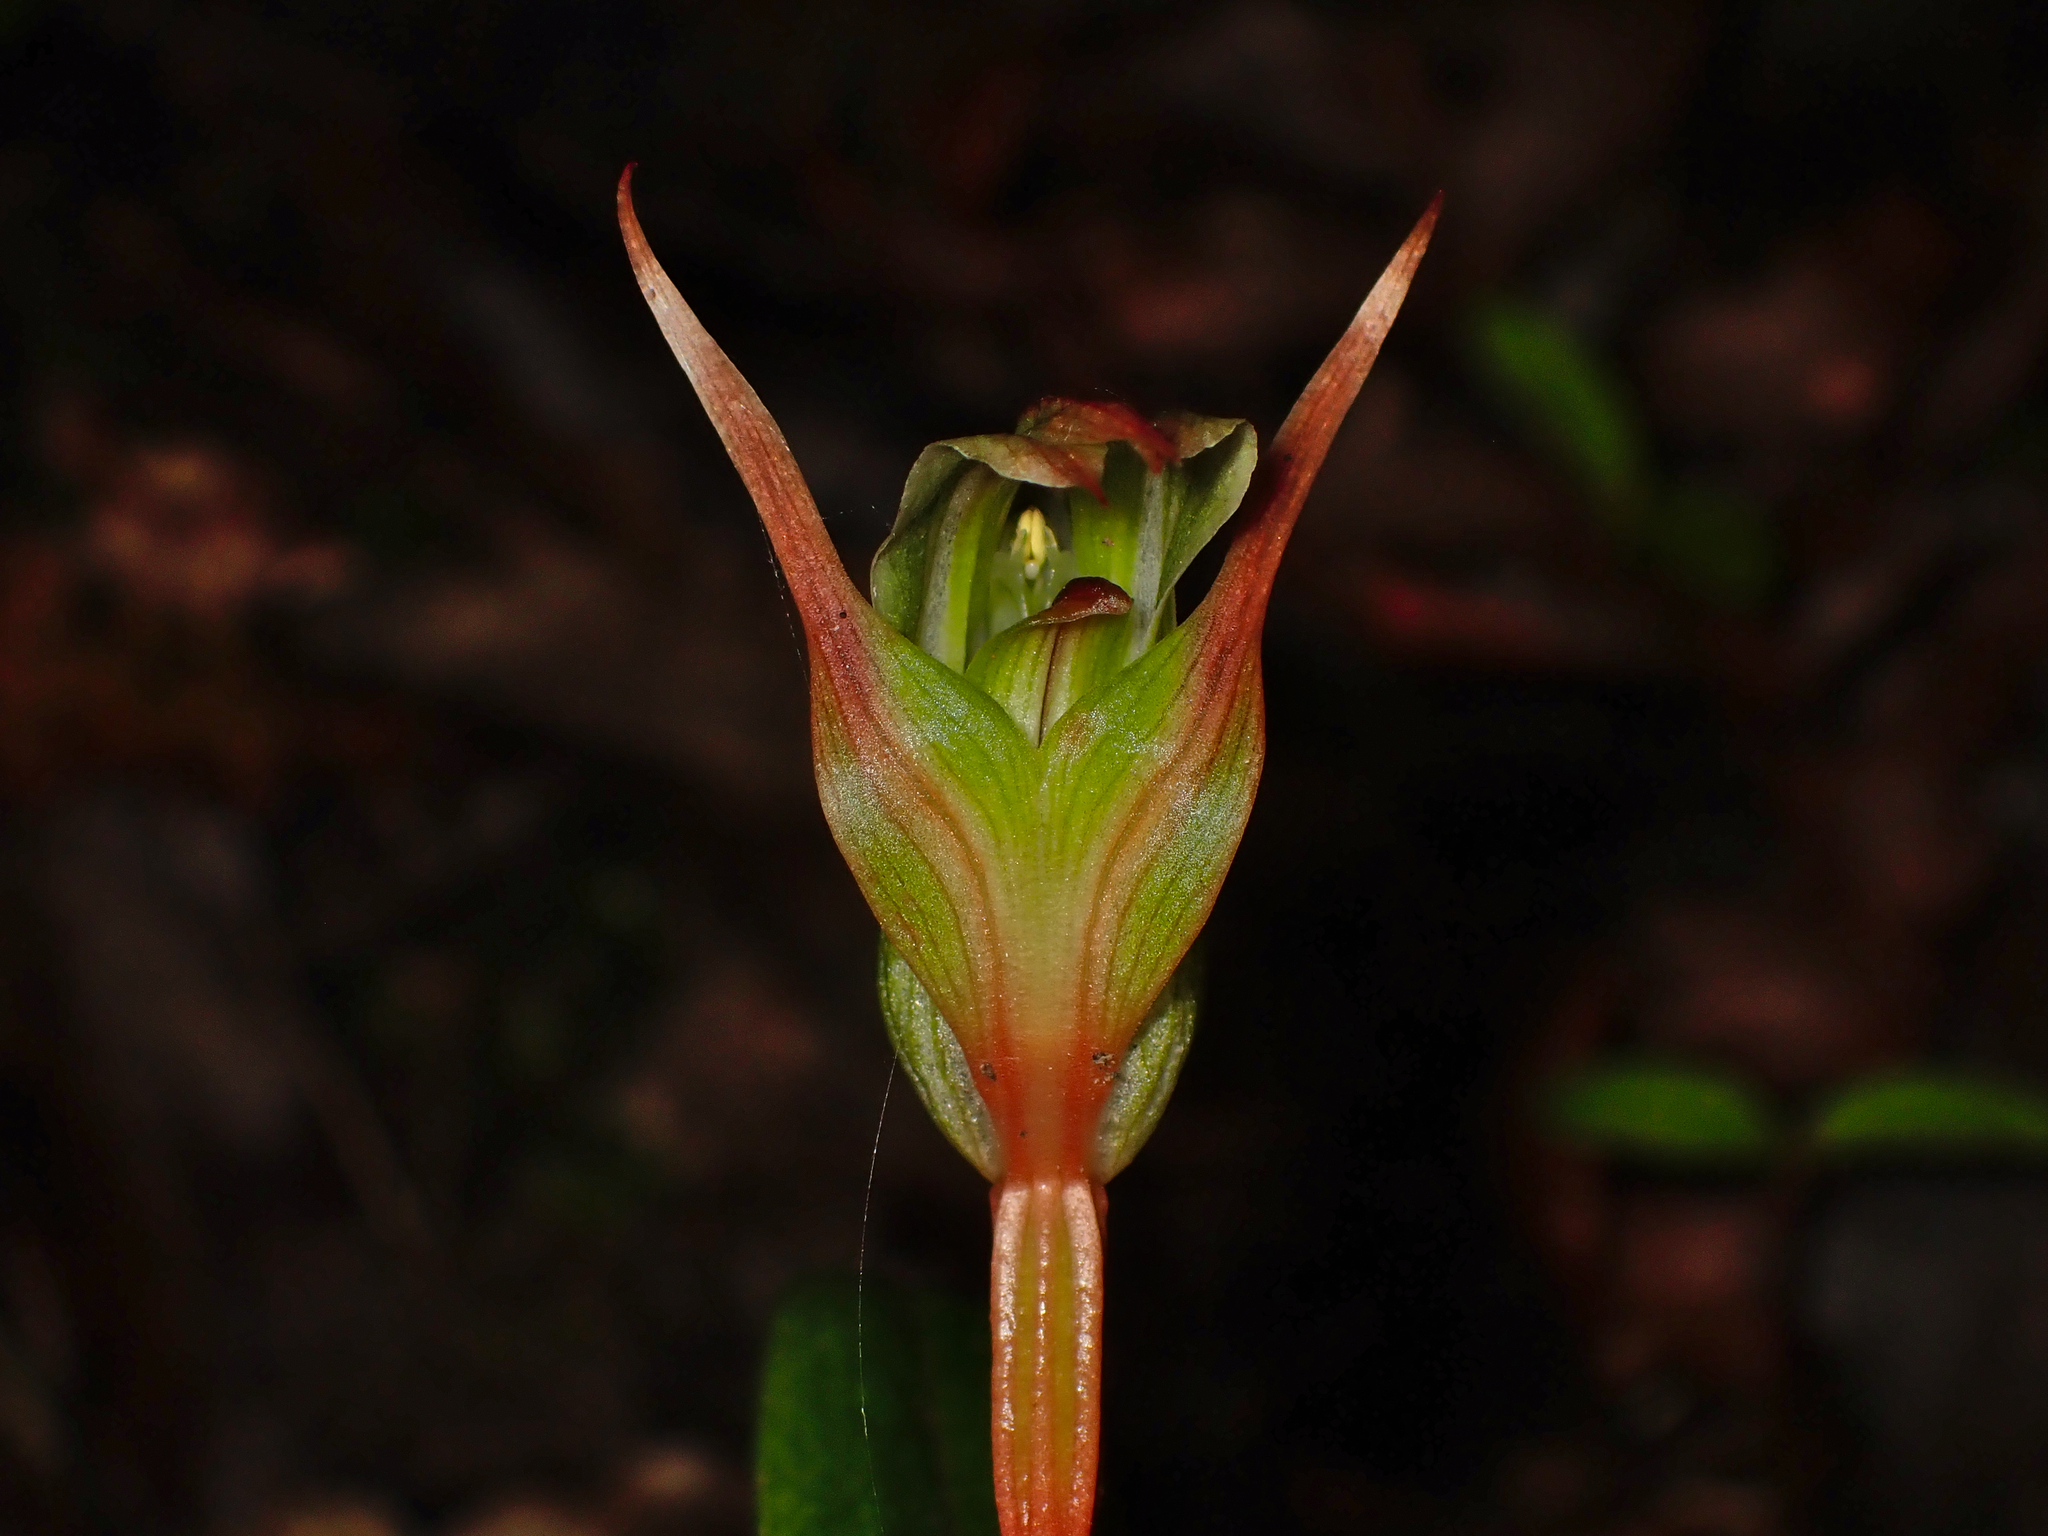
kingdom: Plantae
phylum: Tracheophyta
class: Liliopsida
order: Asparagales
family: Orchidaceae
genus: Pterostylis
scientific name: Pterostylis montana
